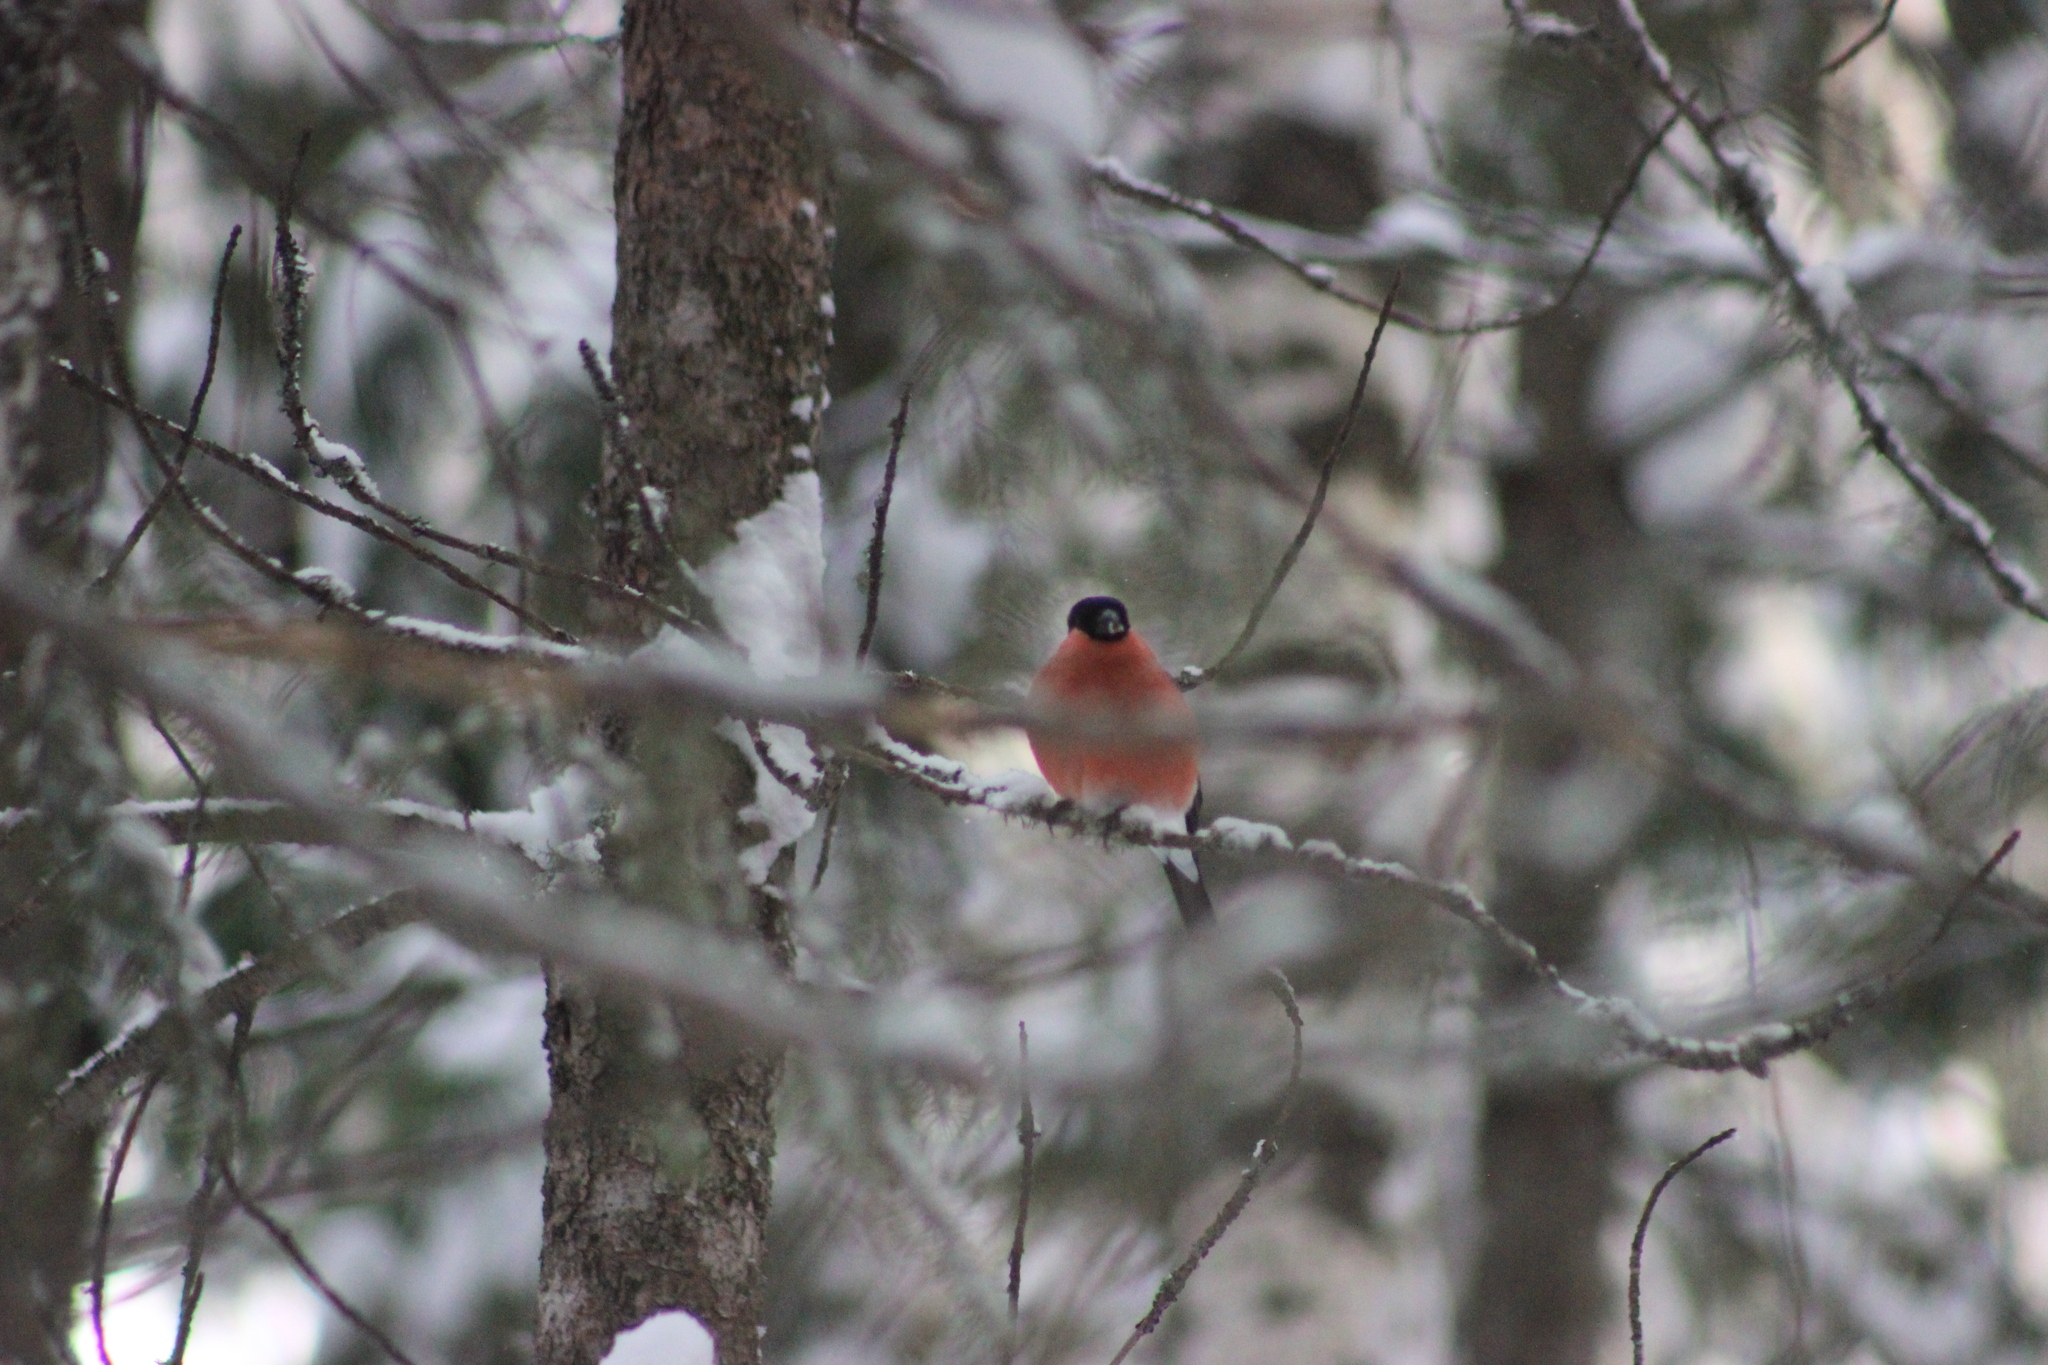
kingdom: Animalia
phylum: Chordata
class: Aves
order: Passeriformes
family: Fringillidae
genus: Pyrrhula
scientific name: Pyrrhula pyrrhula
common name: Eurasian bullfinch
